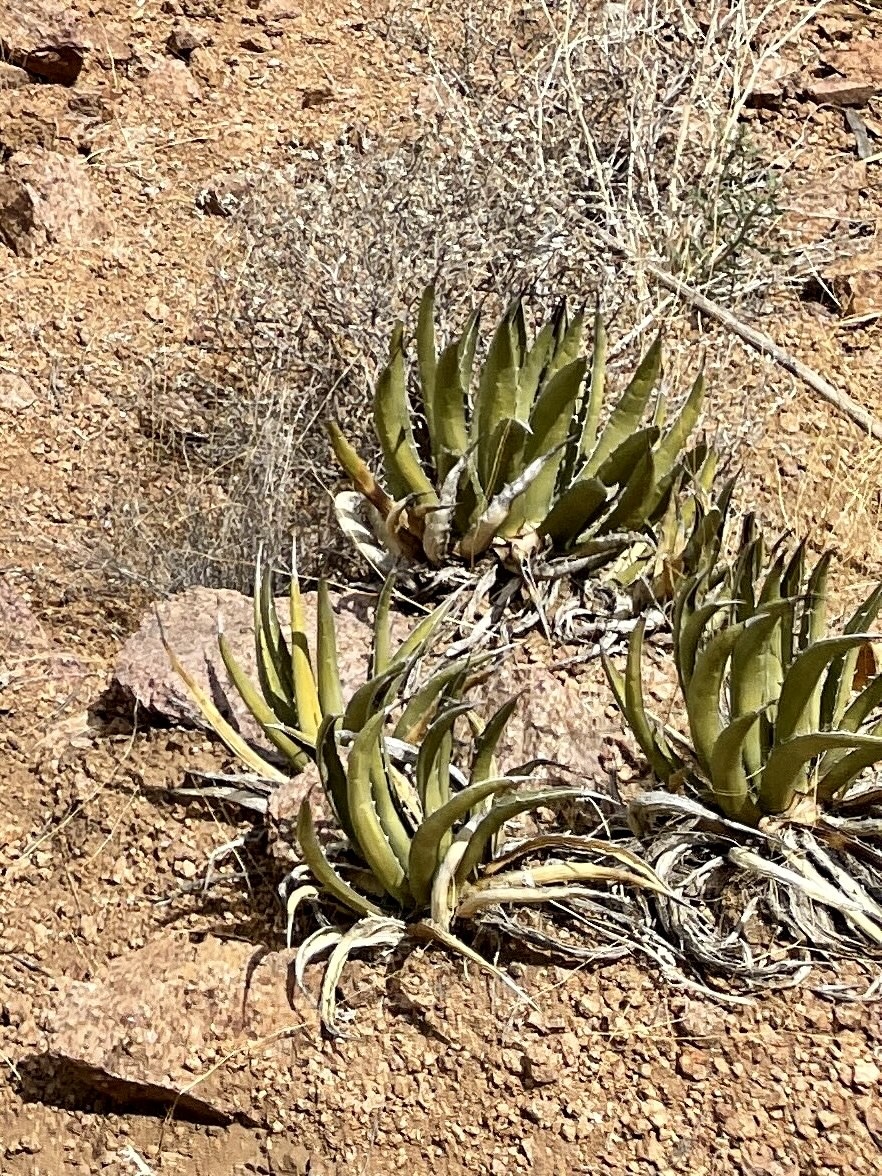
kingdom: Plantae
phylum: Tracheophyta
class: Liliopsida
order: Asparagales
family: Asparagaceae
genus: Agave
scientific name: Agave lechuguilla
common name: Lecheguilla agave
